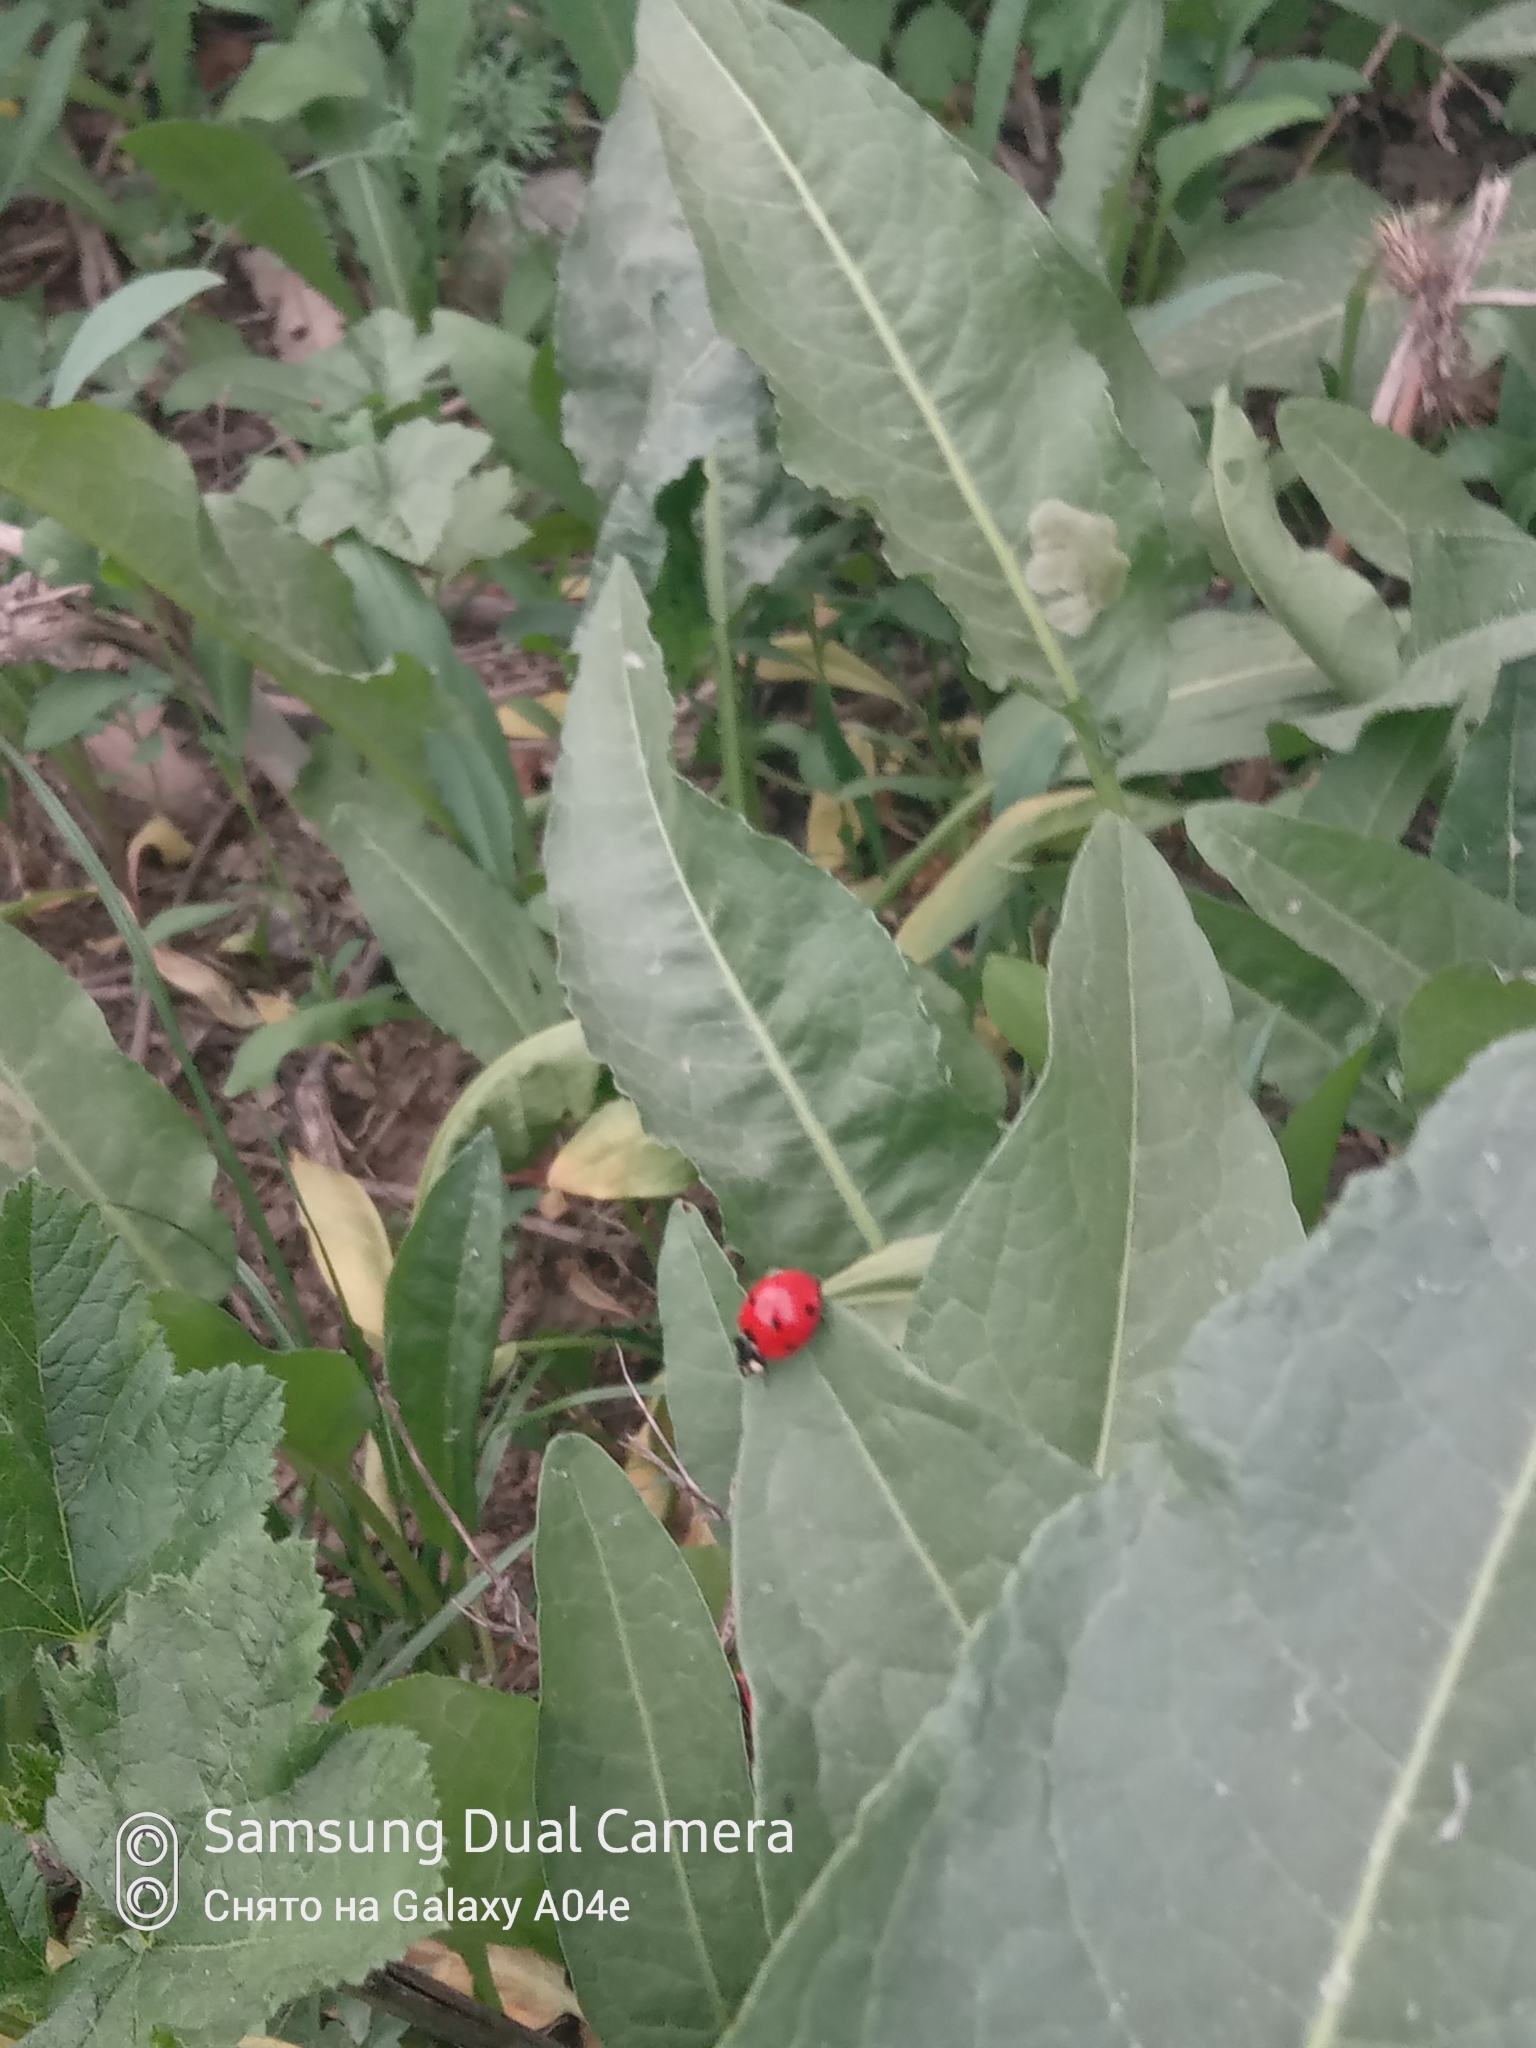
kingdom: Animalia
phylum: Arthropoda
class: Insecta
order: Coleoptera
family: Coccinellidae
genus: Coccinella
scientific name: Coccinella septempunctata
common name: Sevenspotted lady beetle
